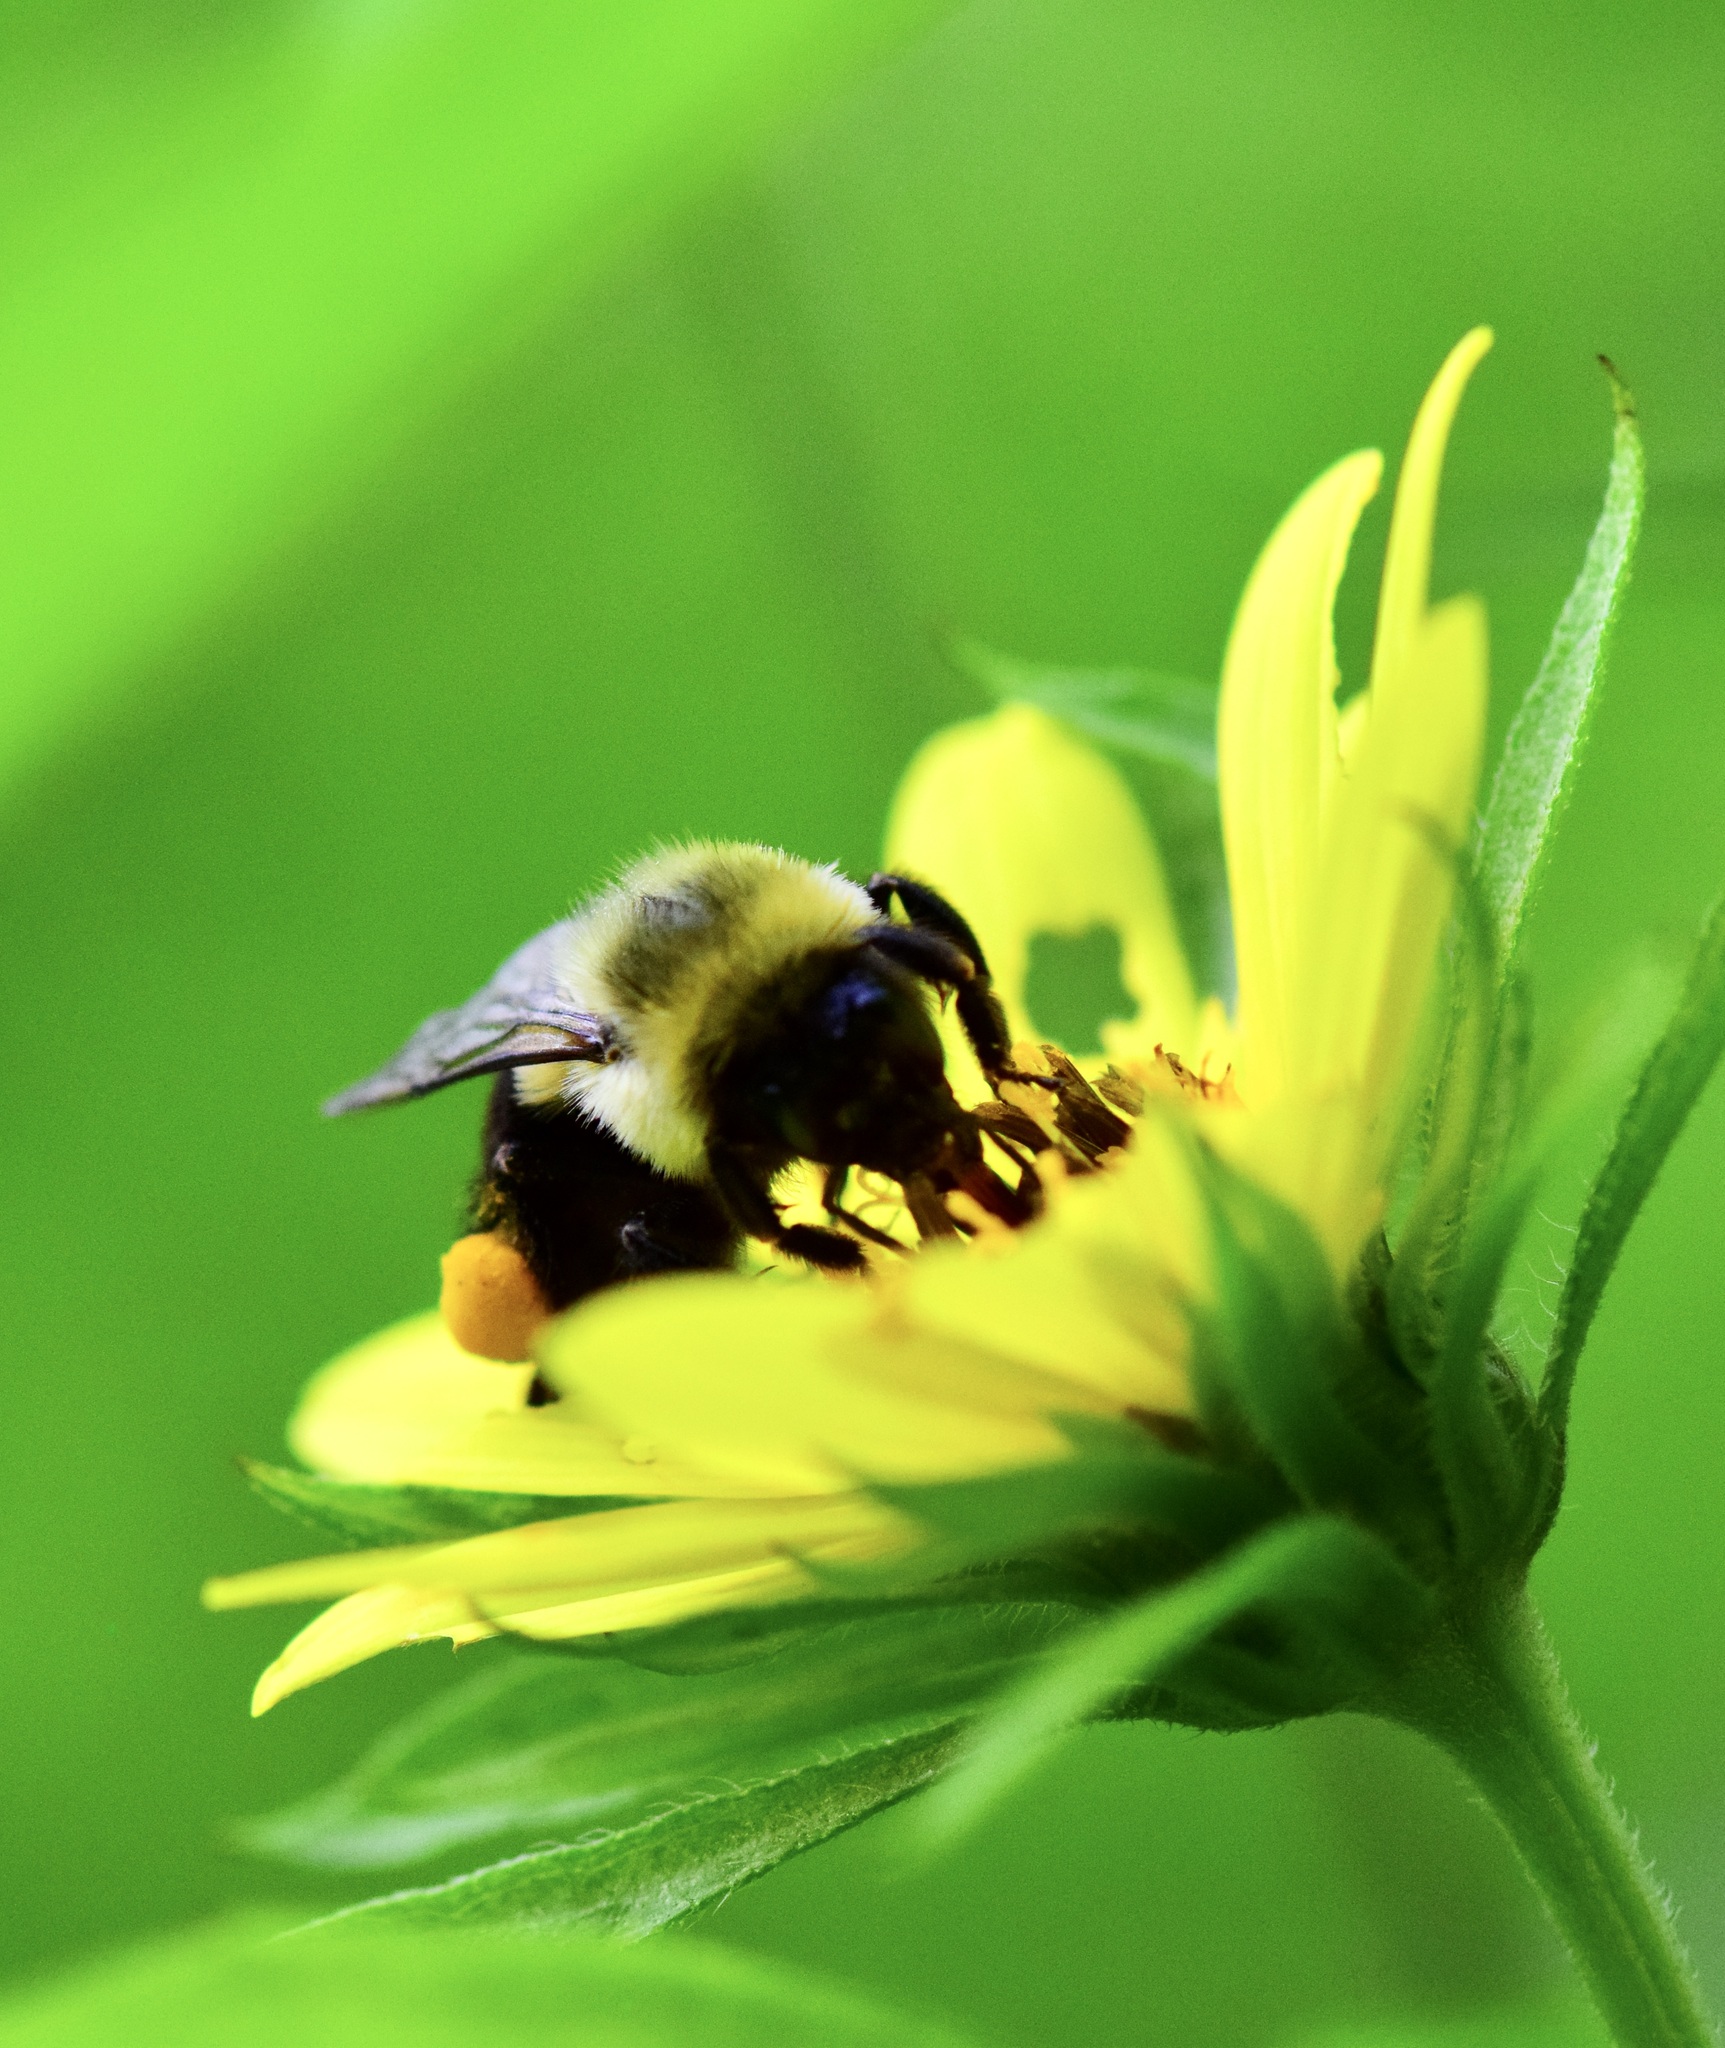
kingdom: Animalia
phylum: Arthropoda
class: Insecta
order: Hymenoptera
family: Apidae
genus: Bombus
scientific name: Bombus impatiens
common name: Common eastern bumble bee
